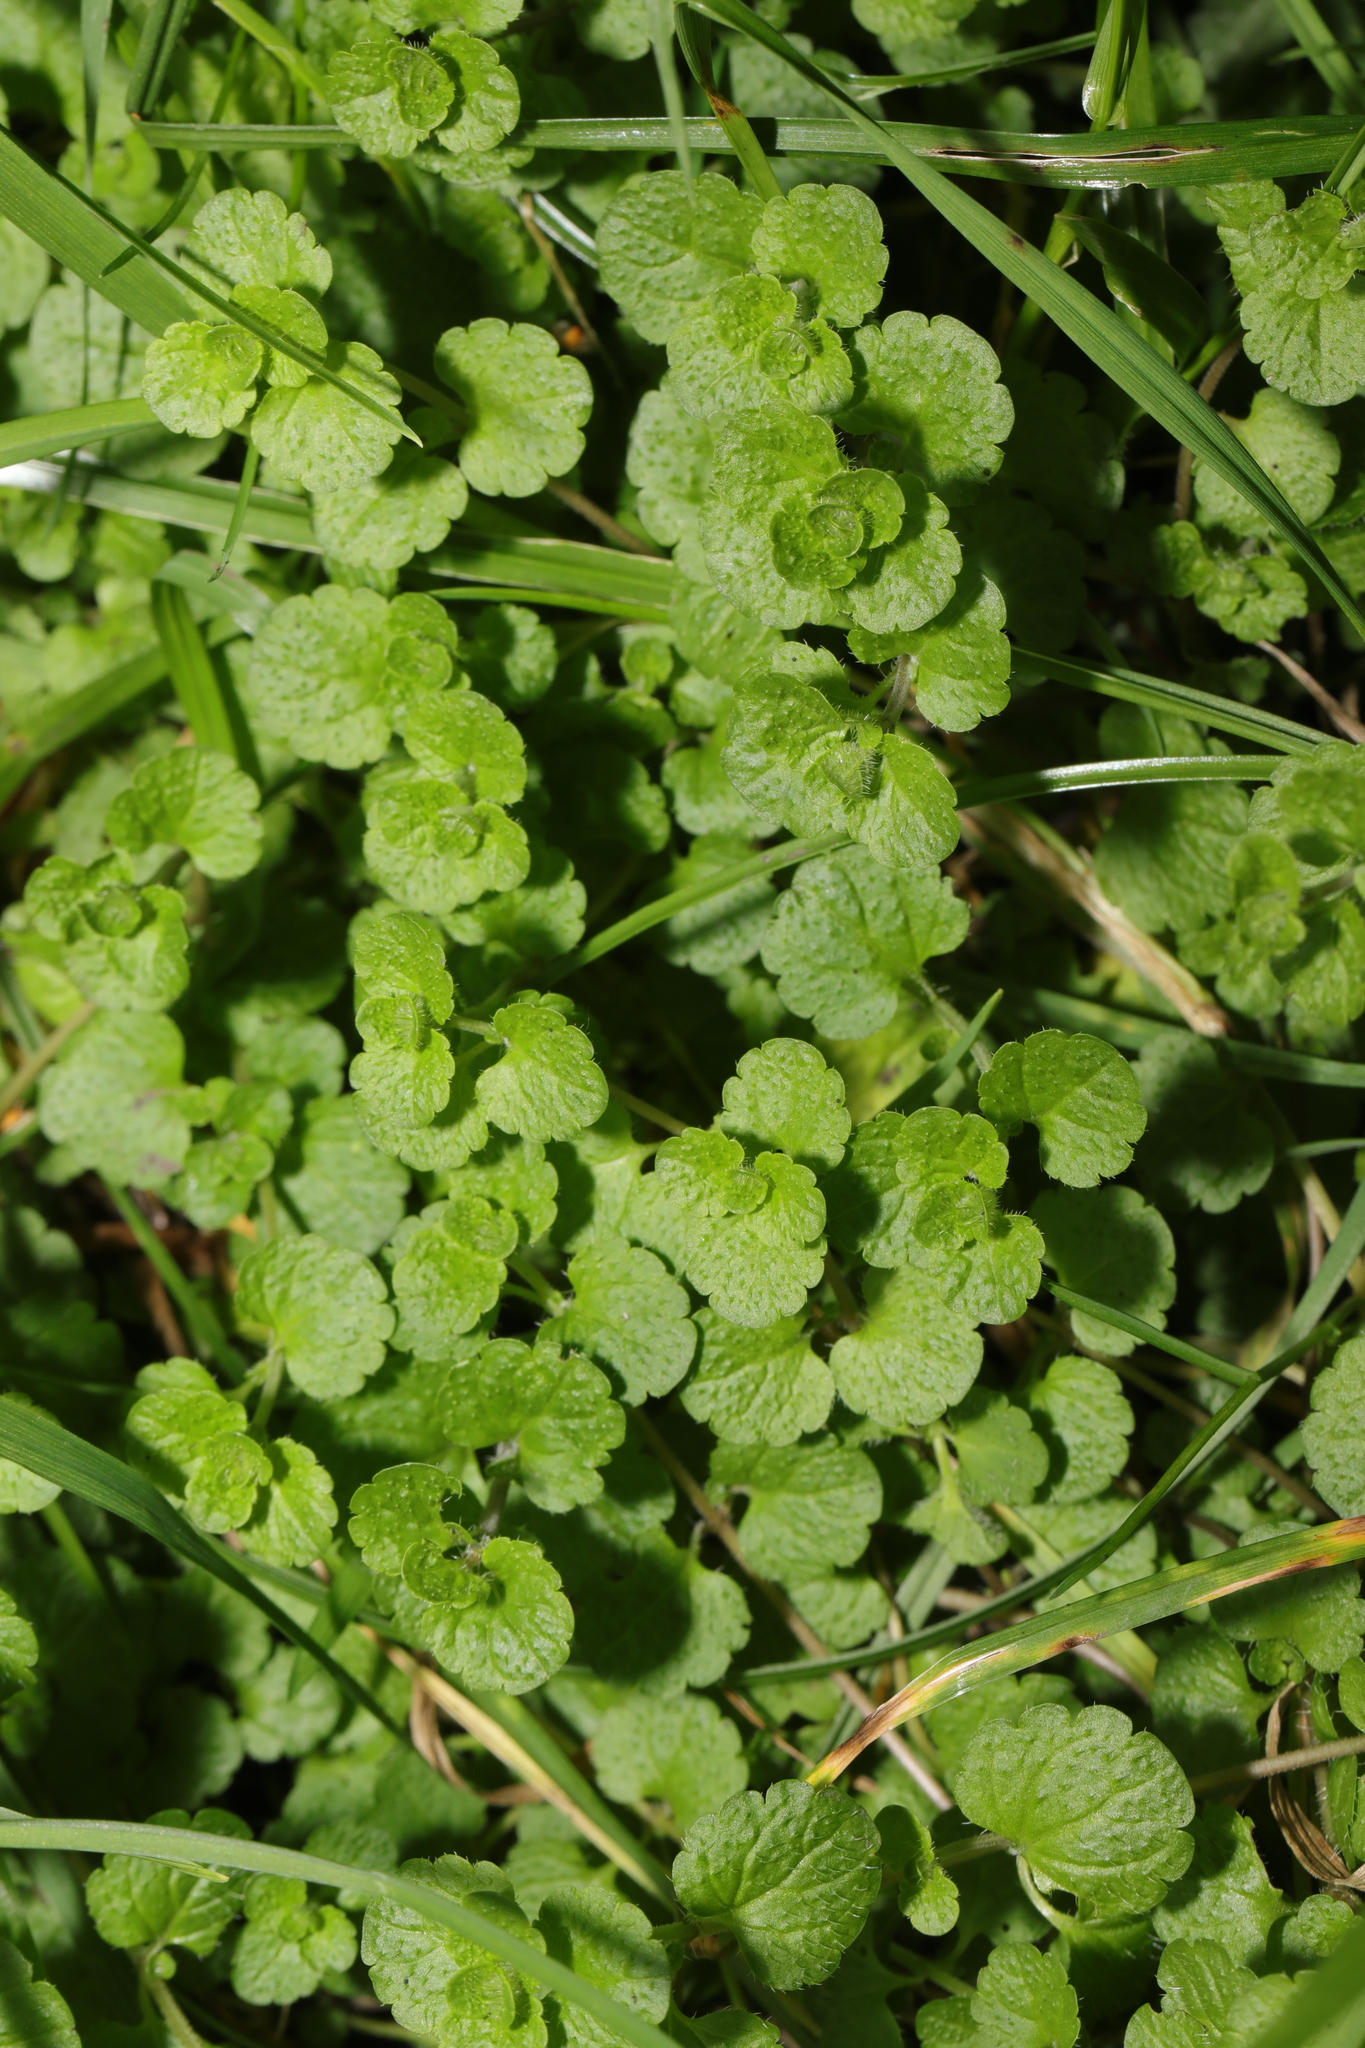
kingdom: Plantae
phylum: Tracheophyta
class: Magnoliopsida
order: Lamiales
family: Plantaginaceae
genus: Veronica
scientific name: Veronica filiformis
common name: Slender speedwell
